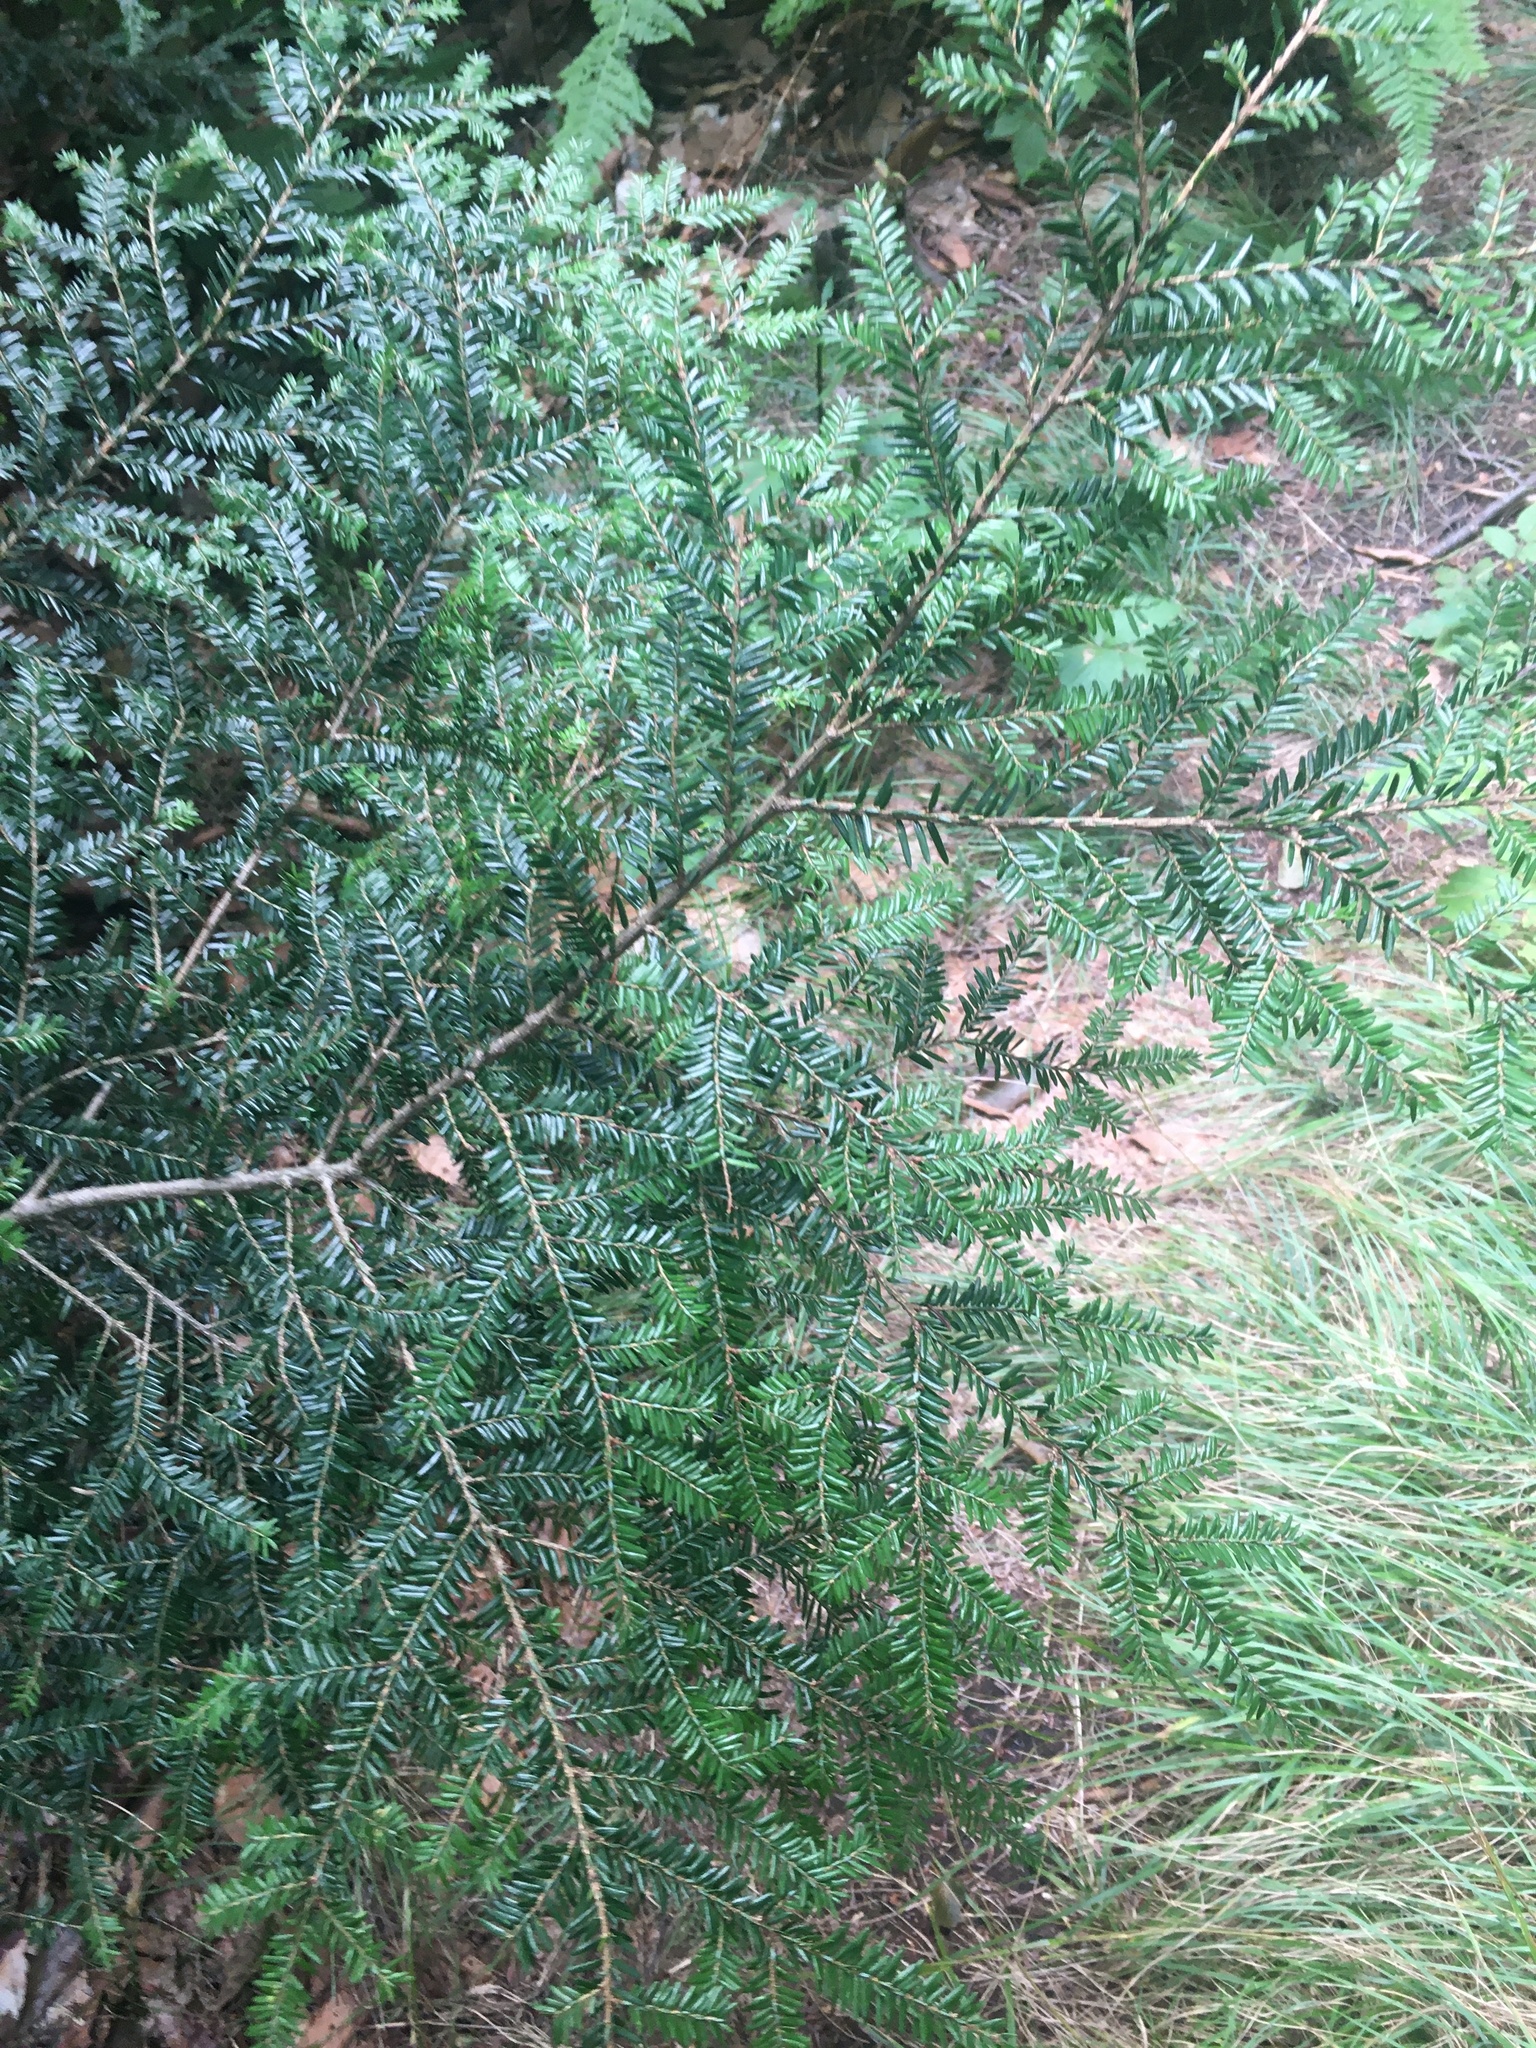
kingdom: Plantae
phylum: Tracheophyta
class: Pinopsida
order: Pinales
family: Pinaceae
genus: Tsuga
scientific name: Tsuga canadensis
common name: Eastern hemlock
